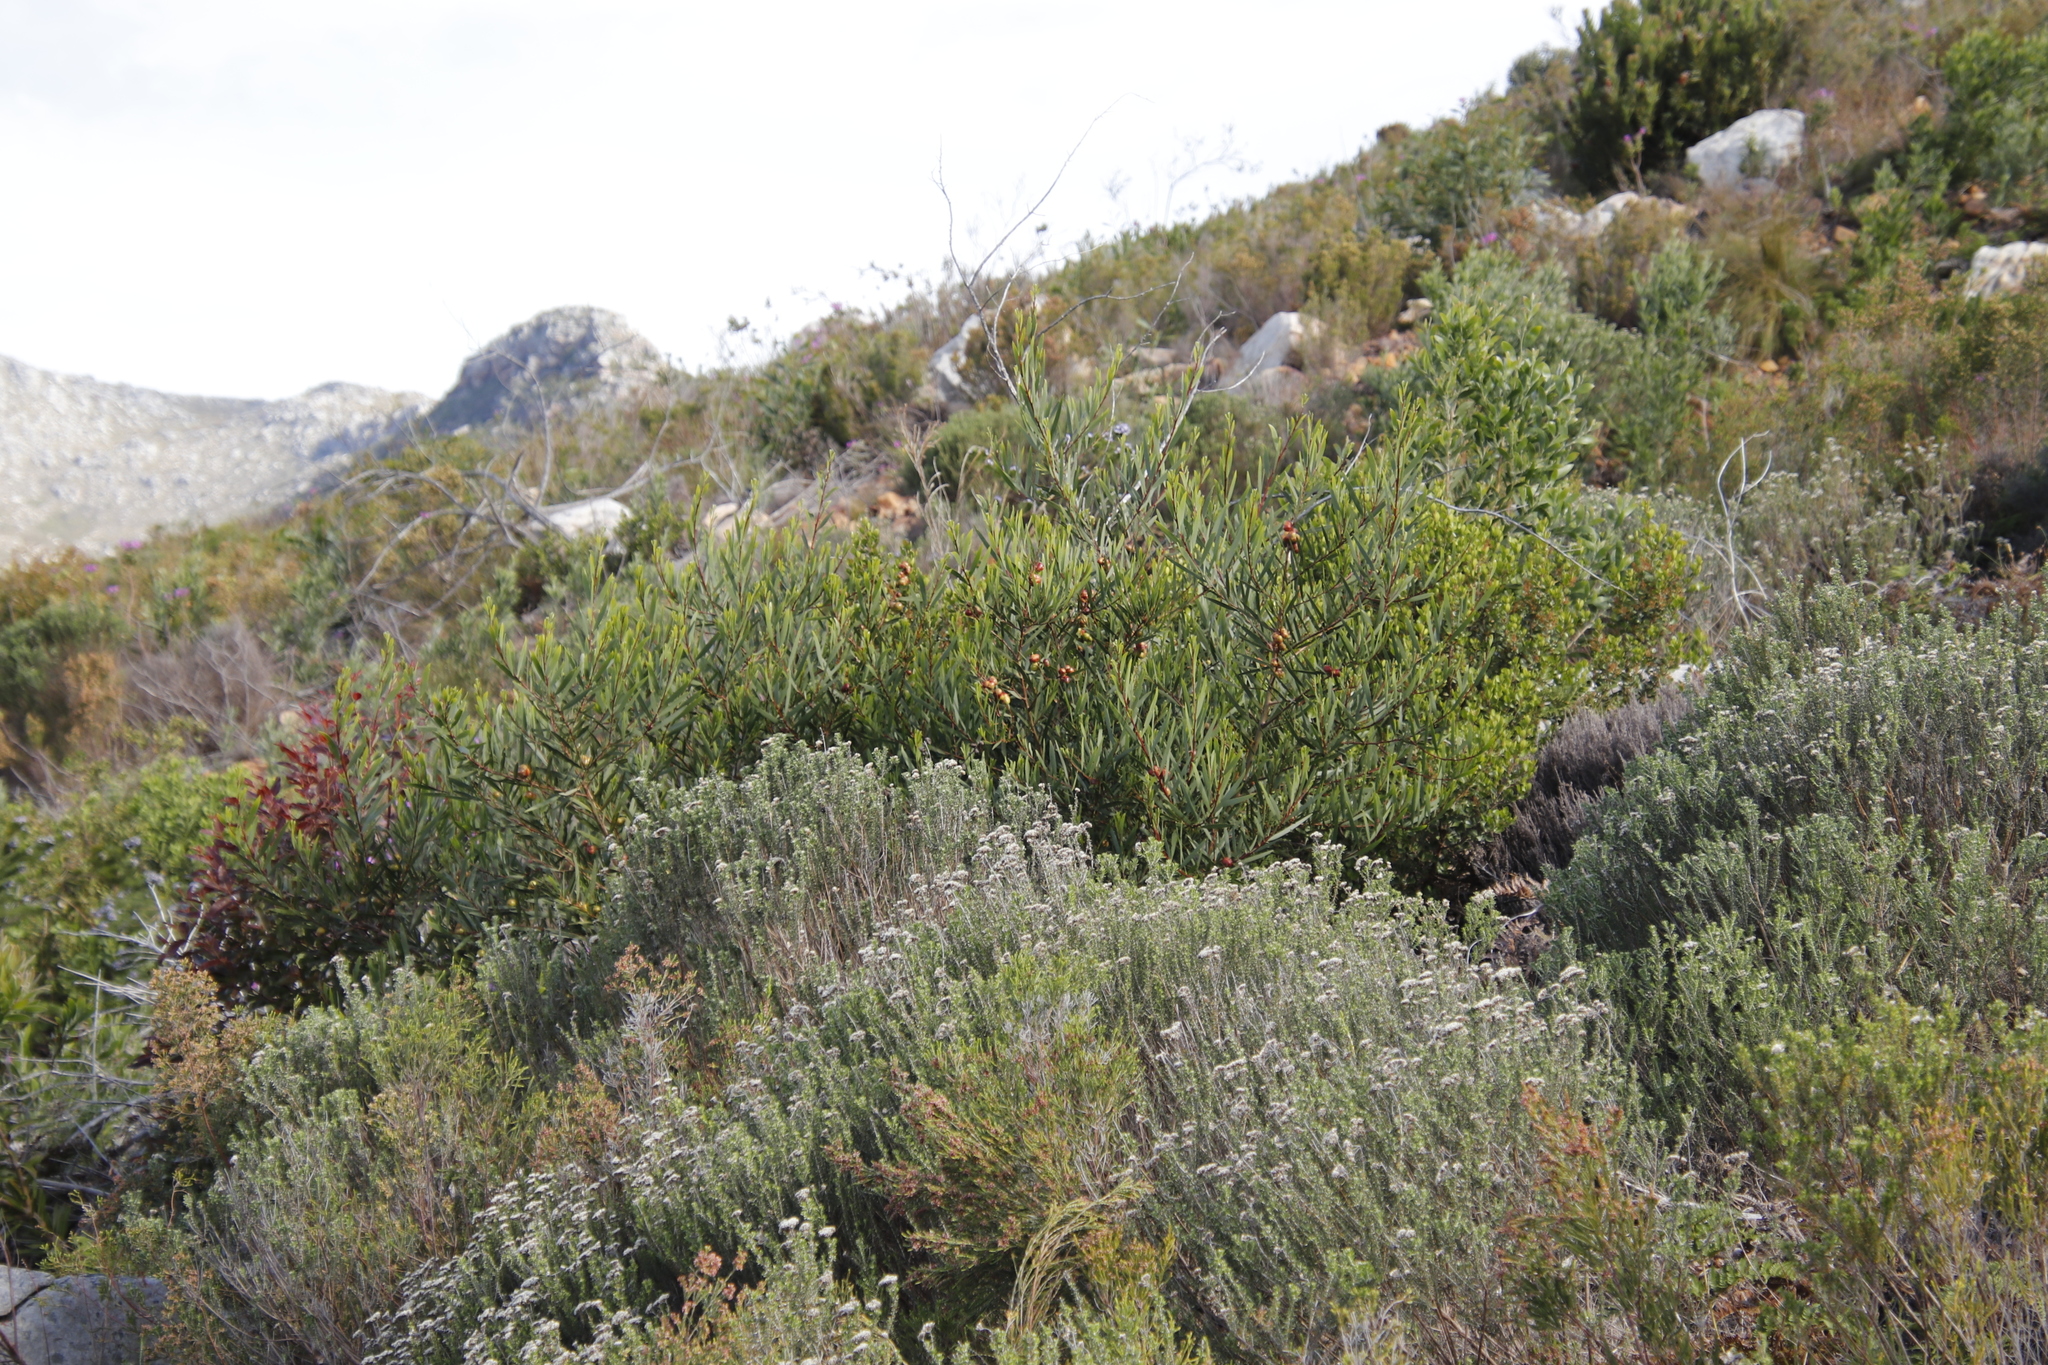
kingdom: Plantae
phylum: Tracheophyta
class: Magnoliopsida
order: Fabales
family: Fabaceae
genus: Acacia
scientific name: Acacia longifolia
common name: Sydney golden wattle
